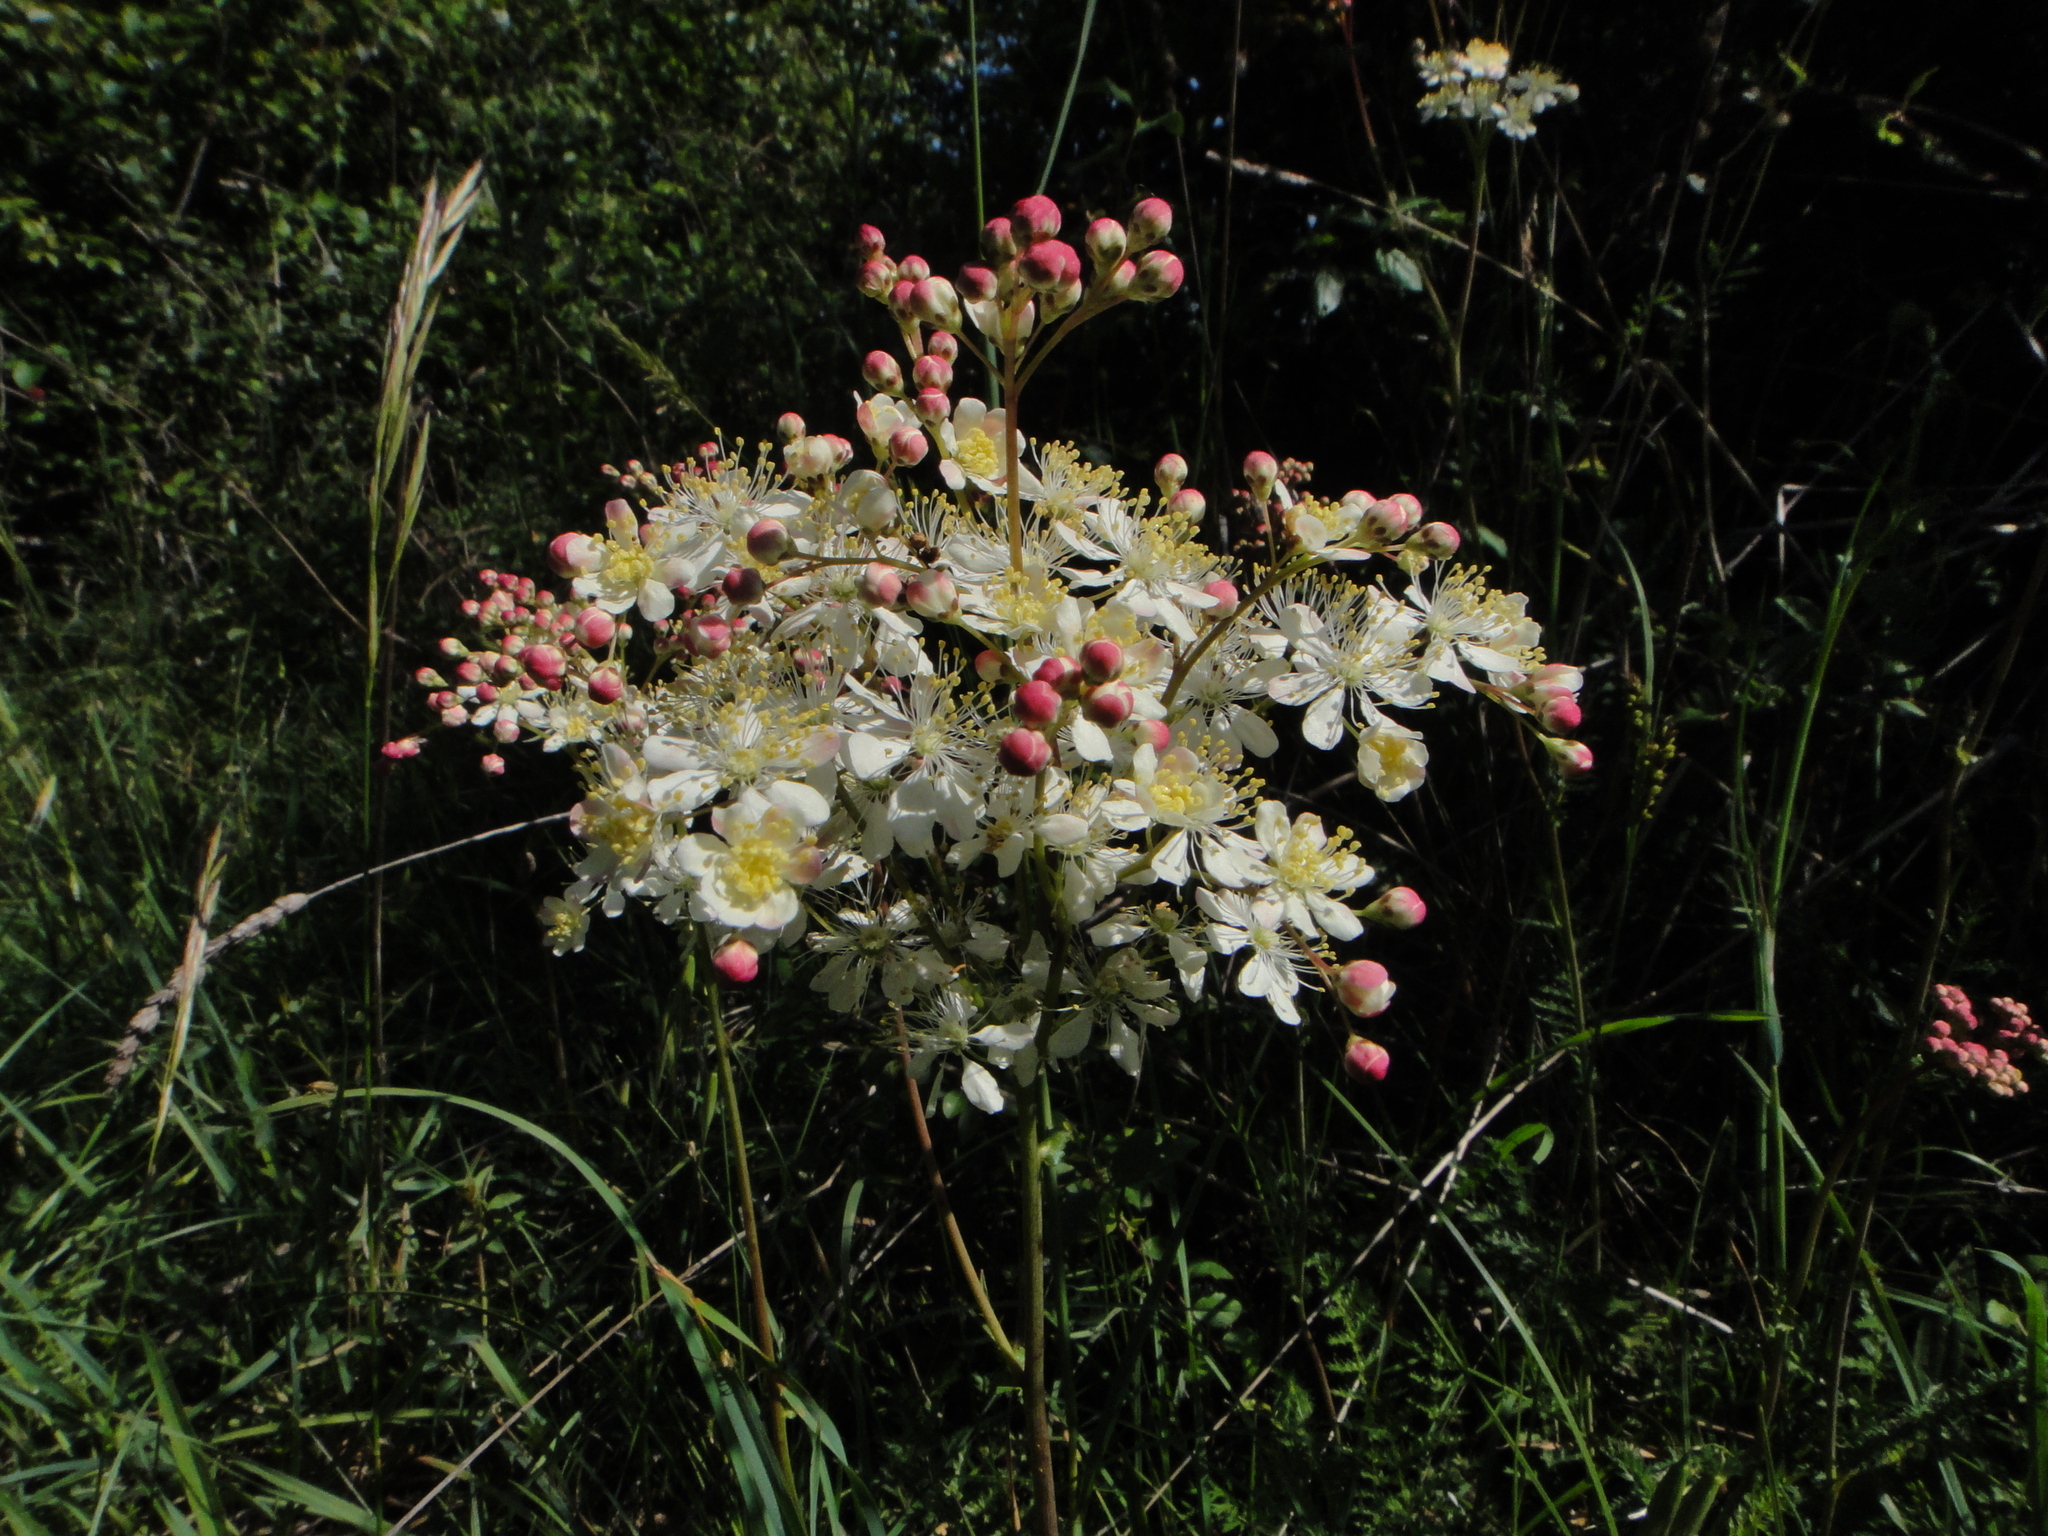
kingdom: Plantae
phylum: Tracheophyta
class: Magnoliopsida
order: Rosales
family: Rosaceae
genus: Filipendula
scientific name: Filipendula vulgaris
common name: Dropwort
